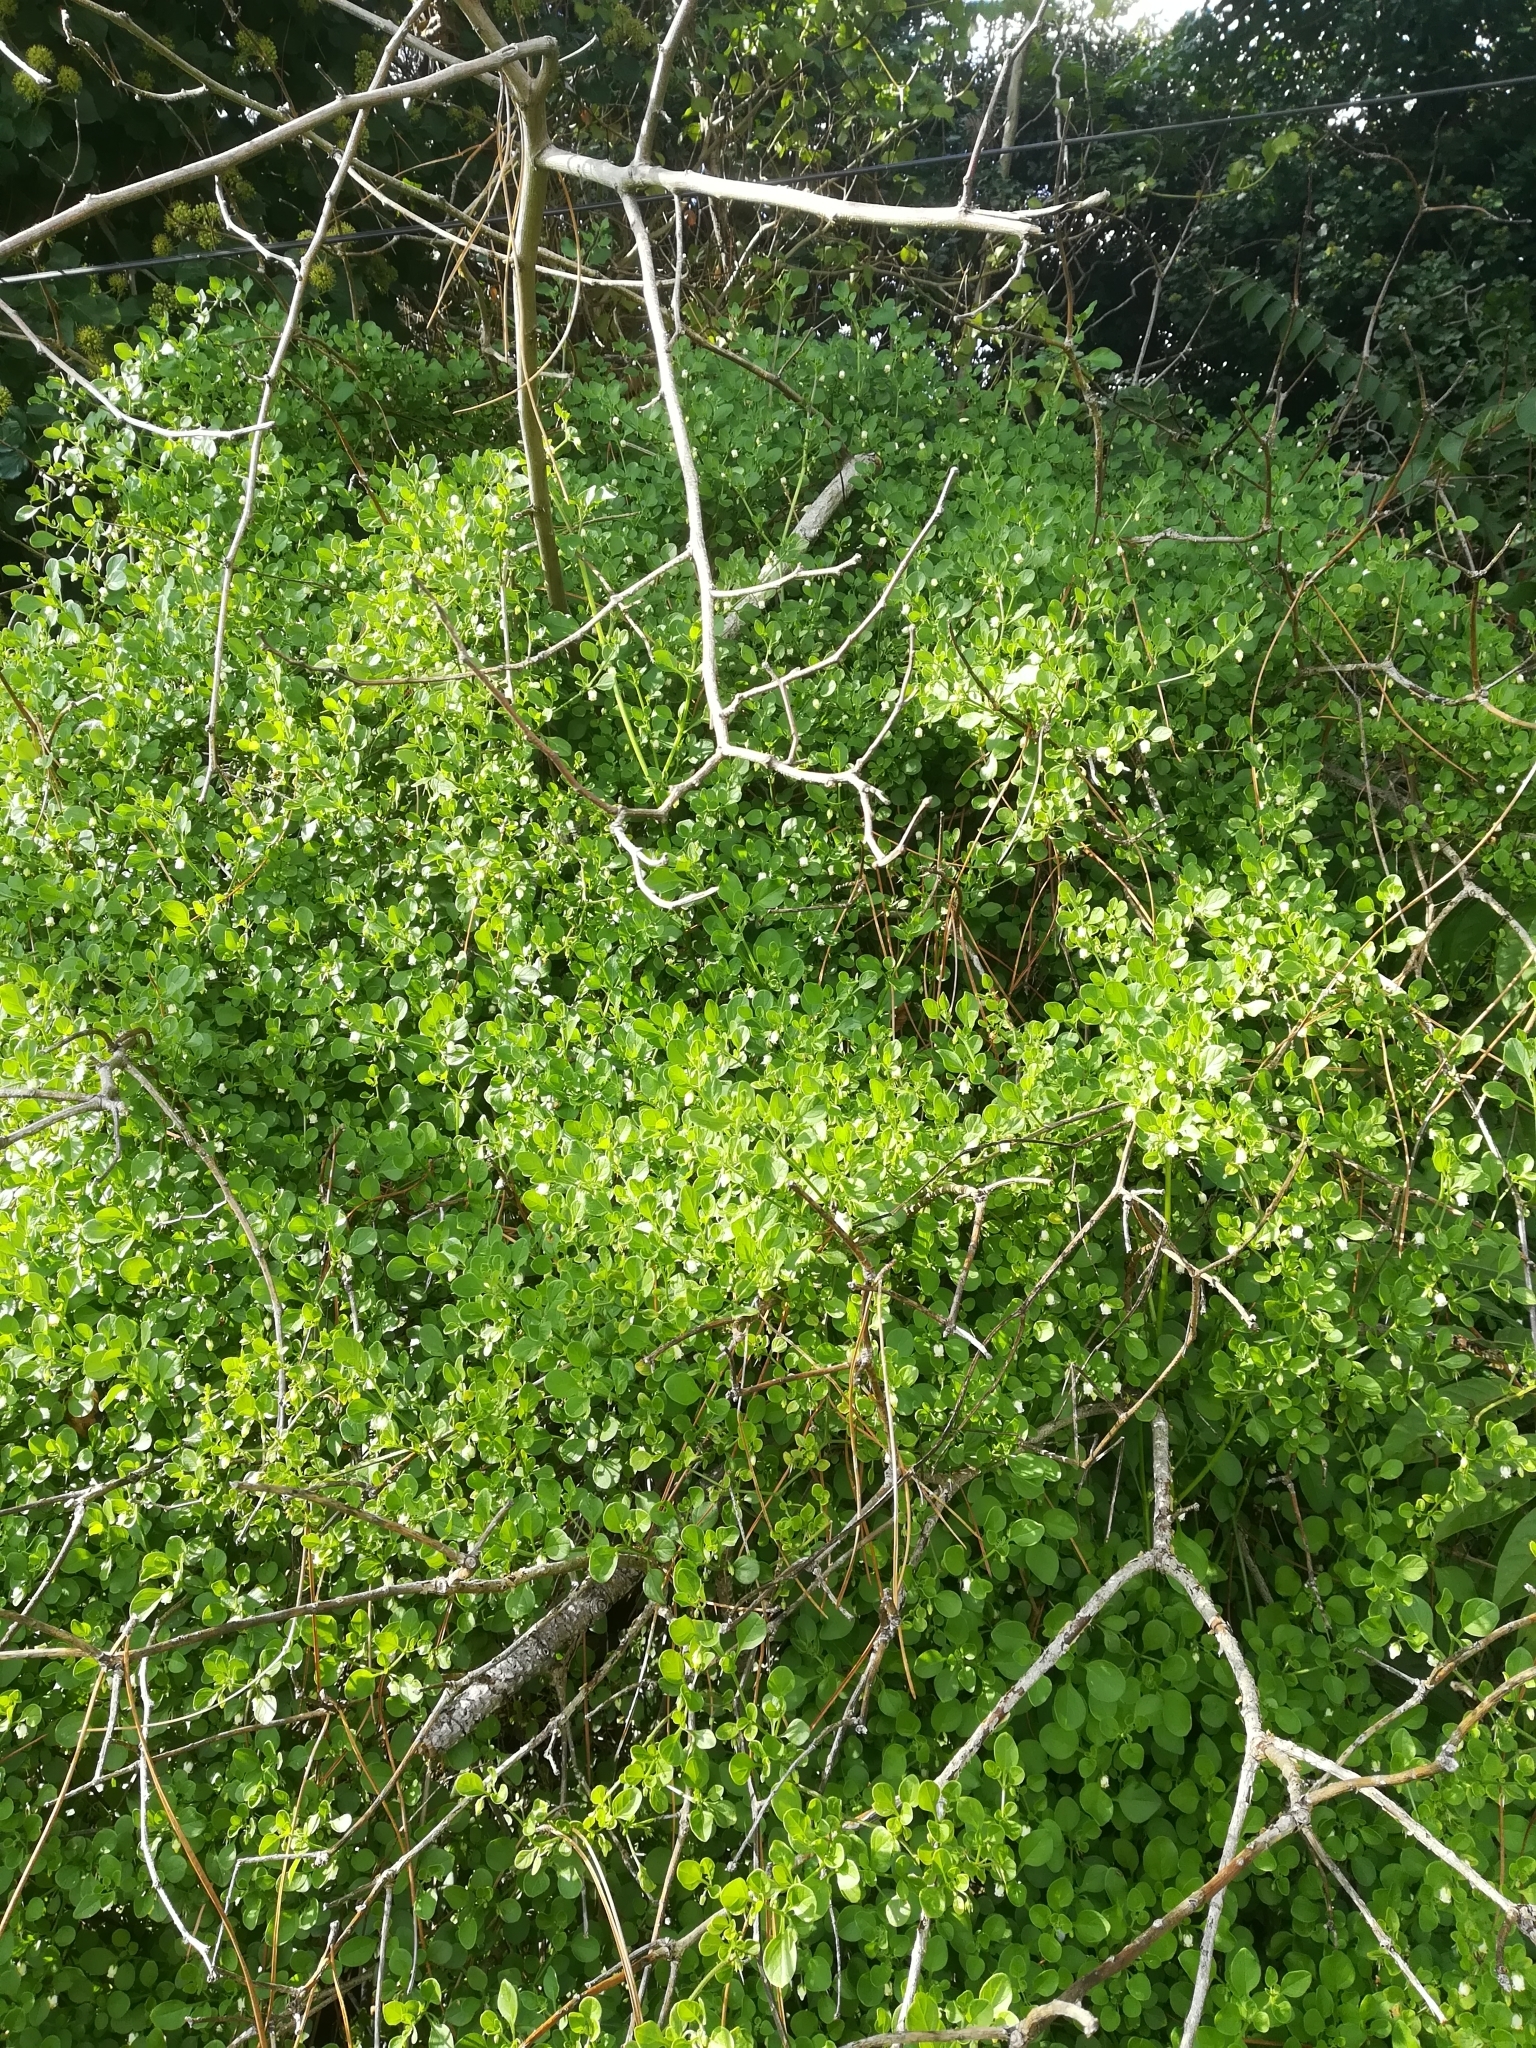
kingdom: Plantae
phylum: Tracheophyta
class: Magnoliopsida
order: Solanales
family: Solanaceae
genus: Salpichroa
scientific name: Salpichroa origanifolia
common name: Lily-of-the-valley-vine
